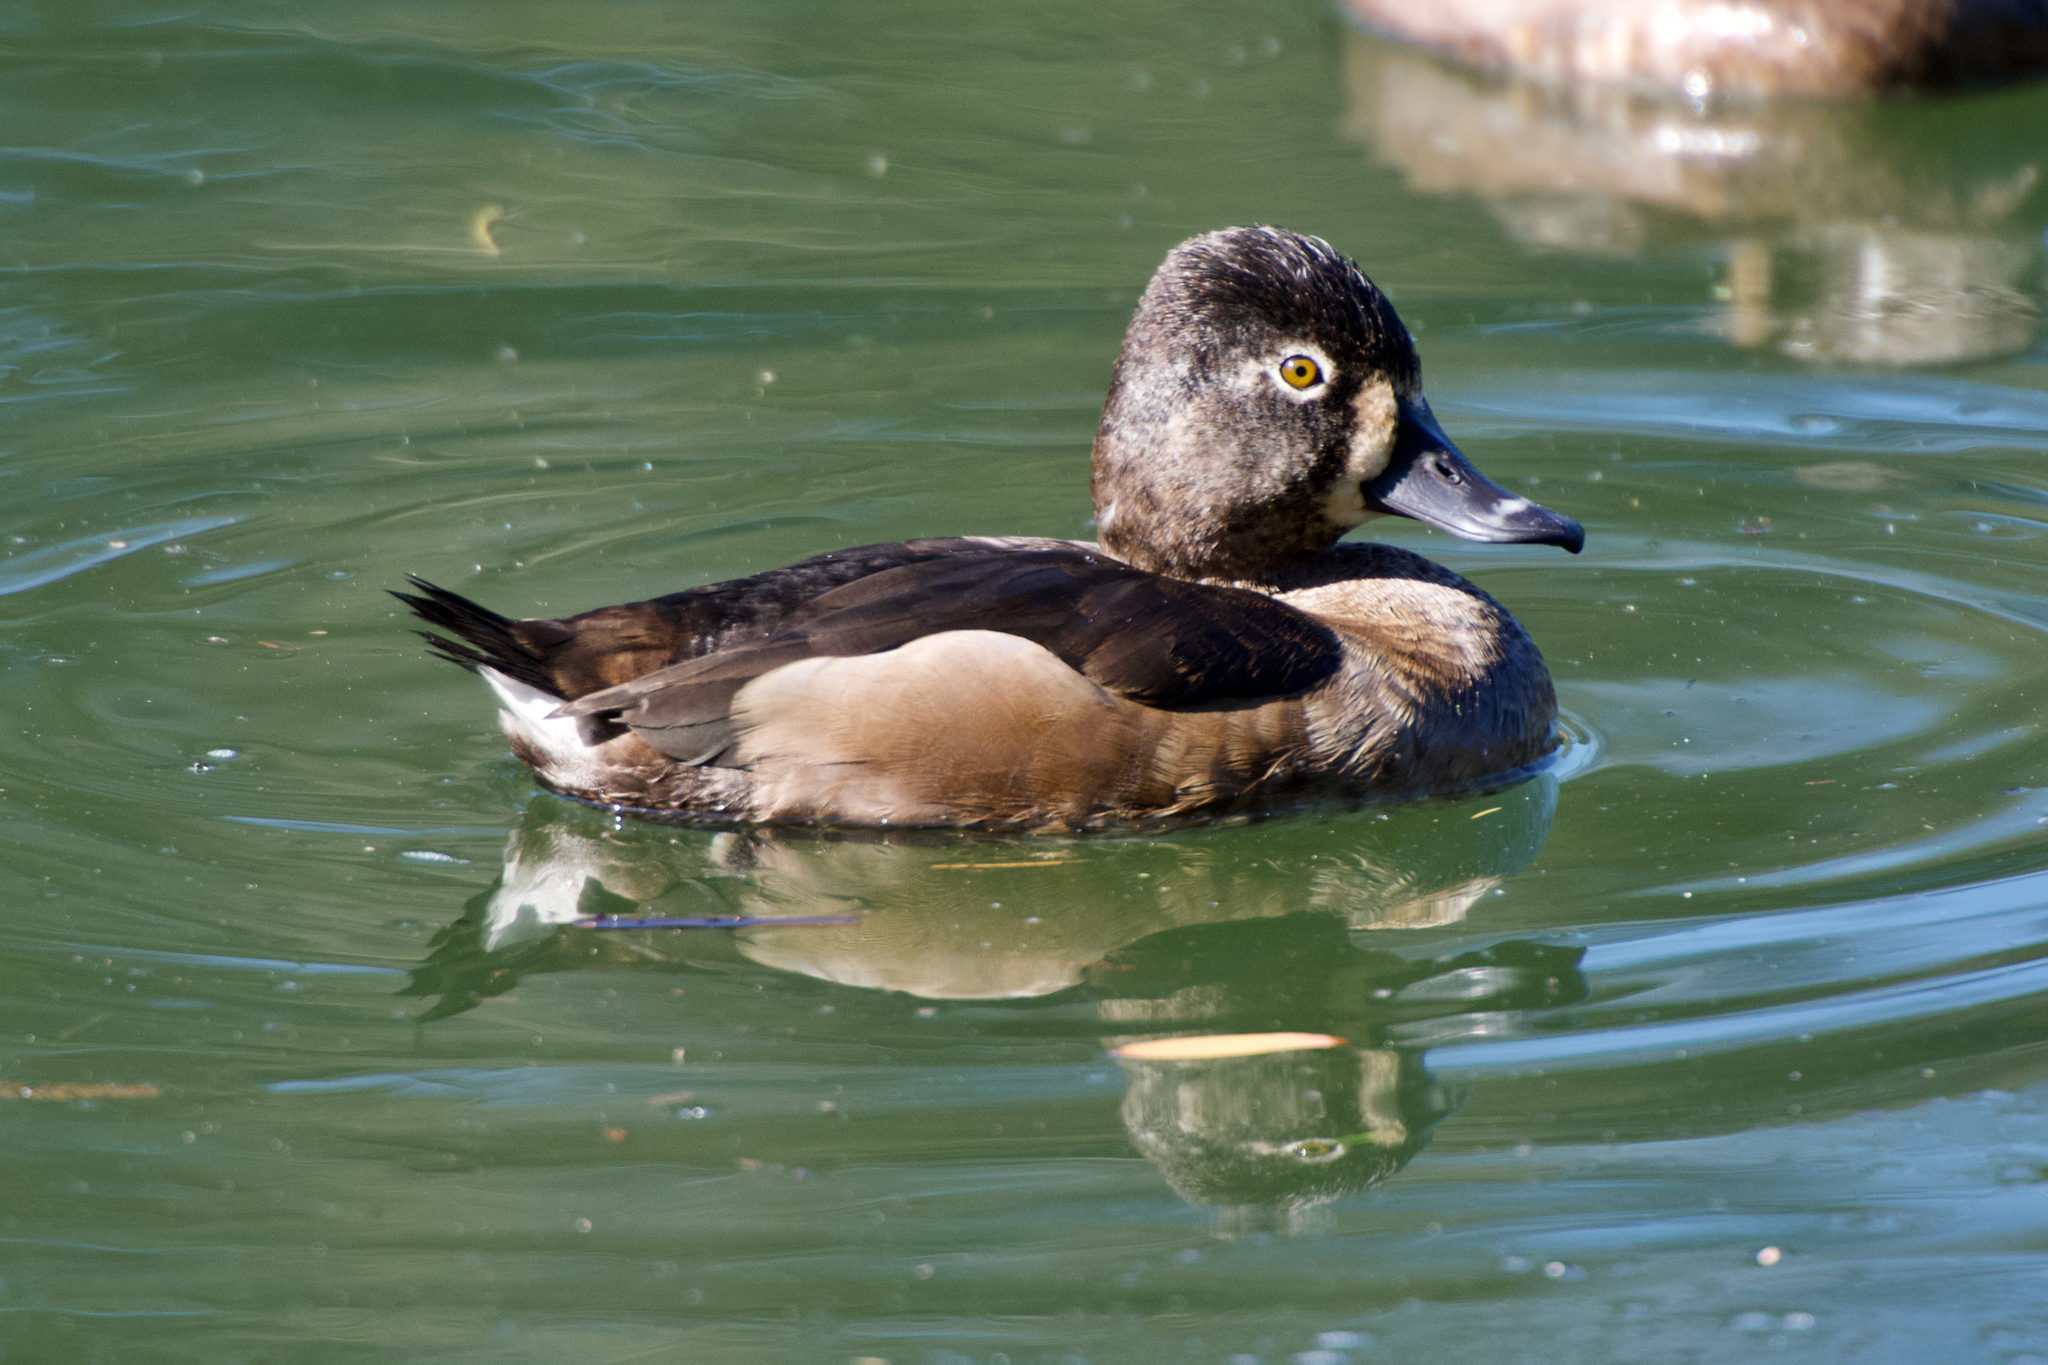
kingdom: Animalia
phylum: Chordata
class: Aves
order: Anseriformes
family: Anatidae
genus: Aythya
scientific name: Aythya collaris
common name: Ring-necked duck
